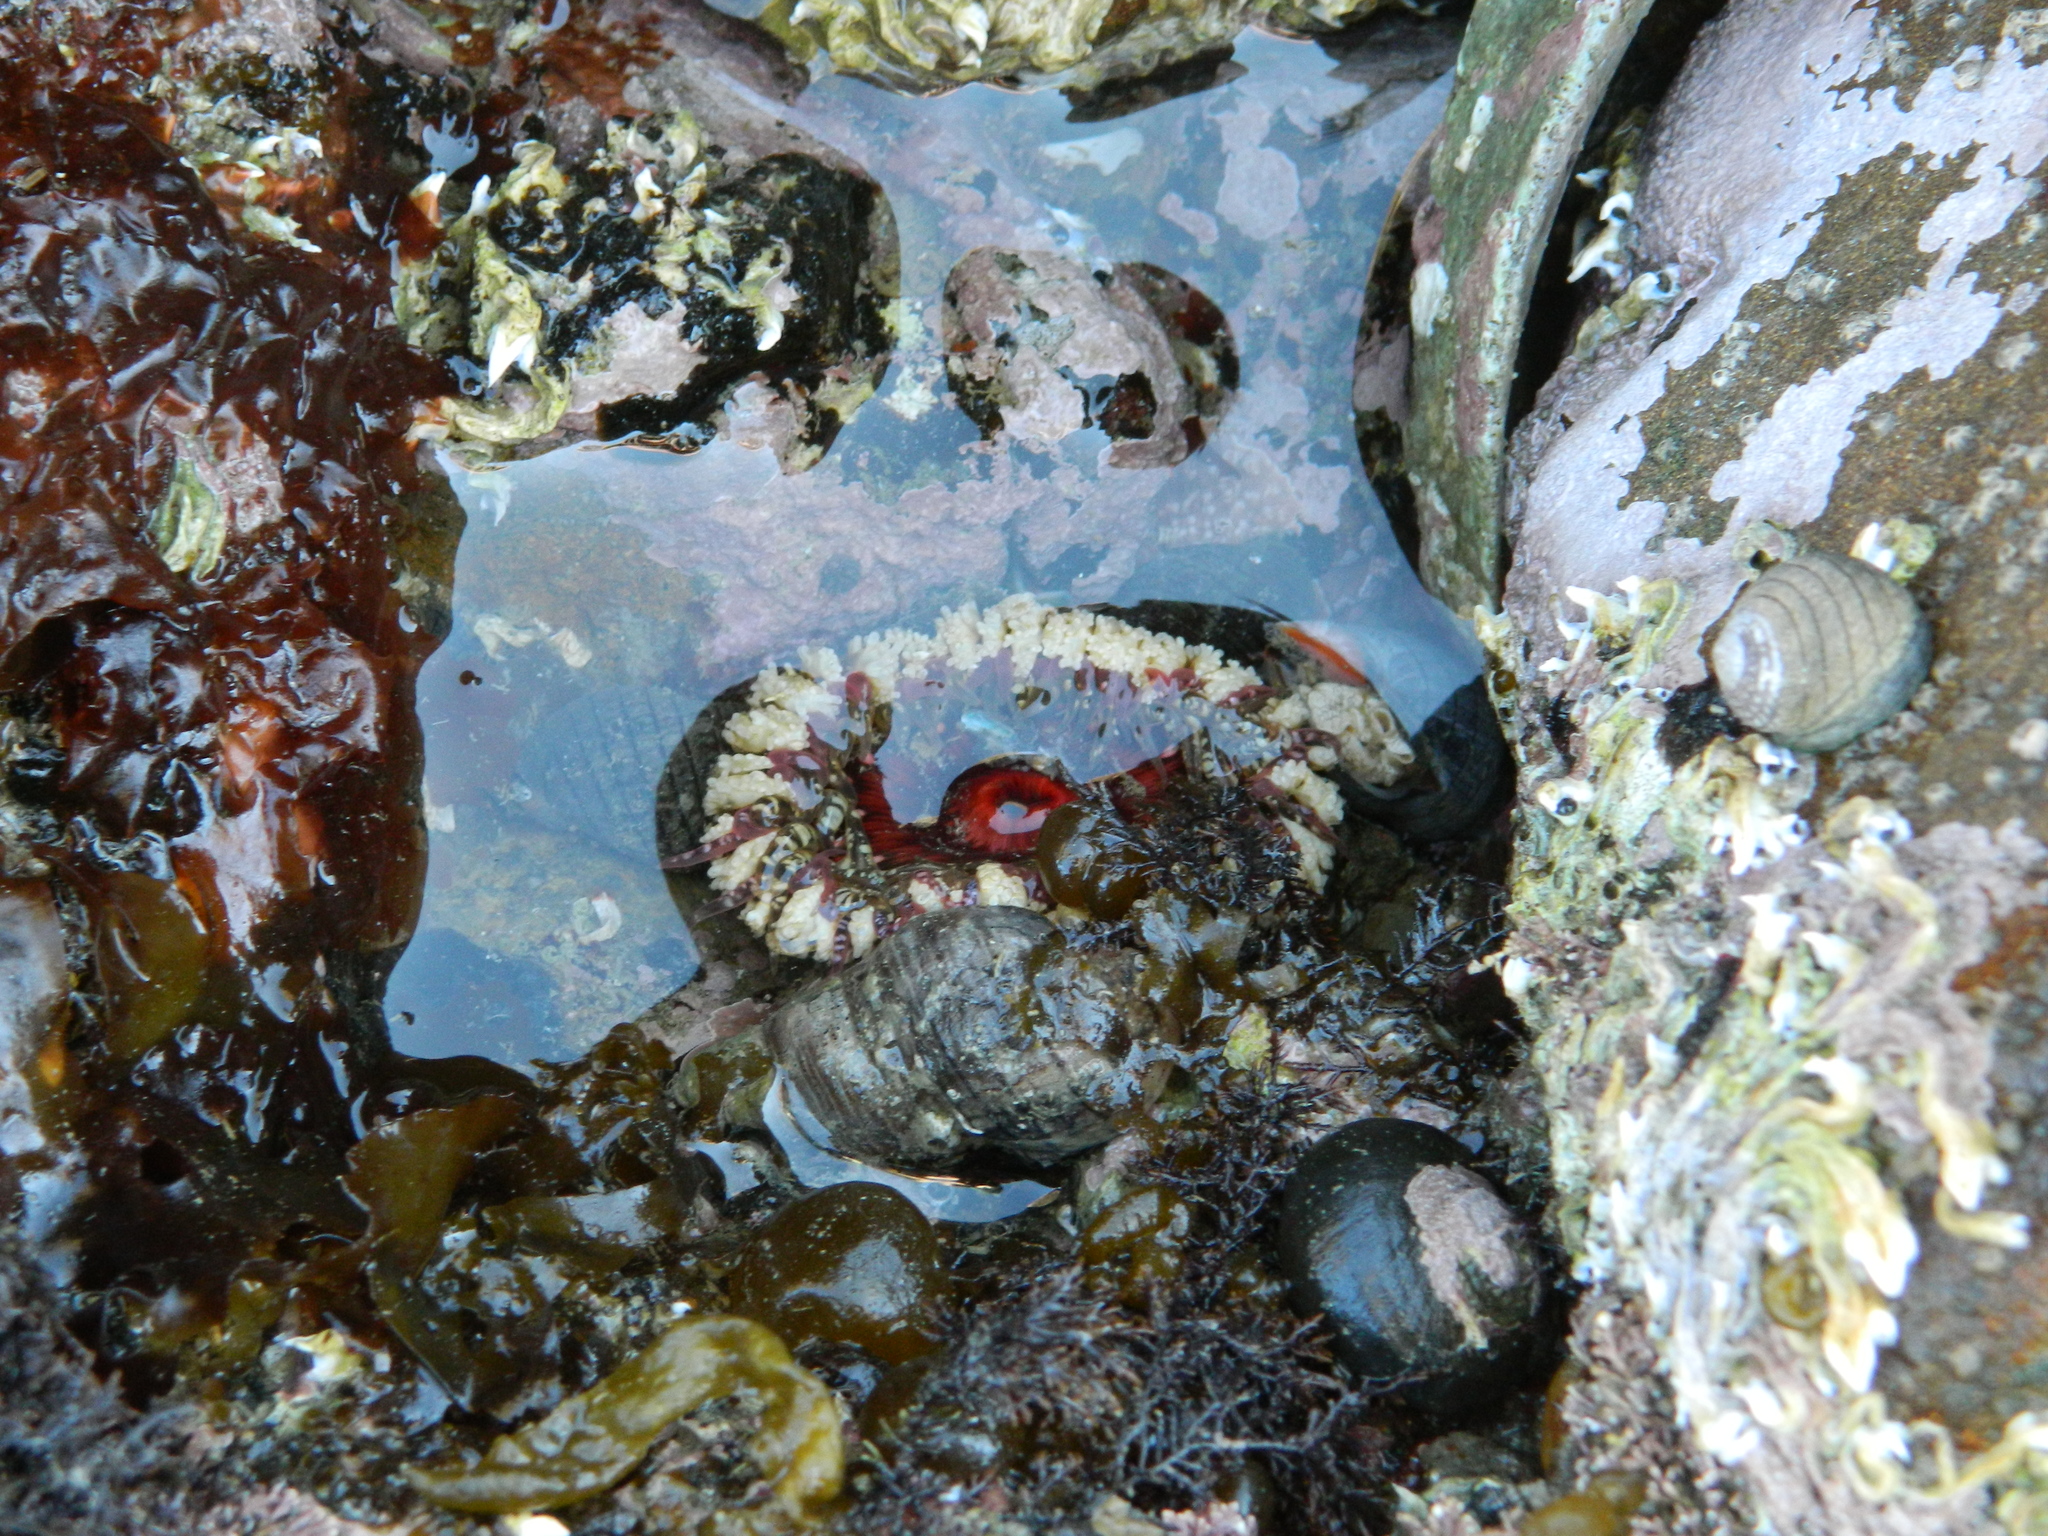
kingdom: Animalia
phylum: Cnidaria
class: Anthozoa
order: Actiniaria
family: Actiniidae
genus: Oulactis
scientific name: Oulactis muscosa
